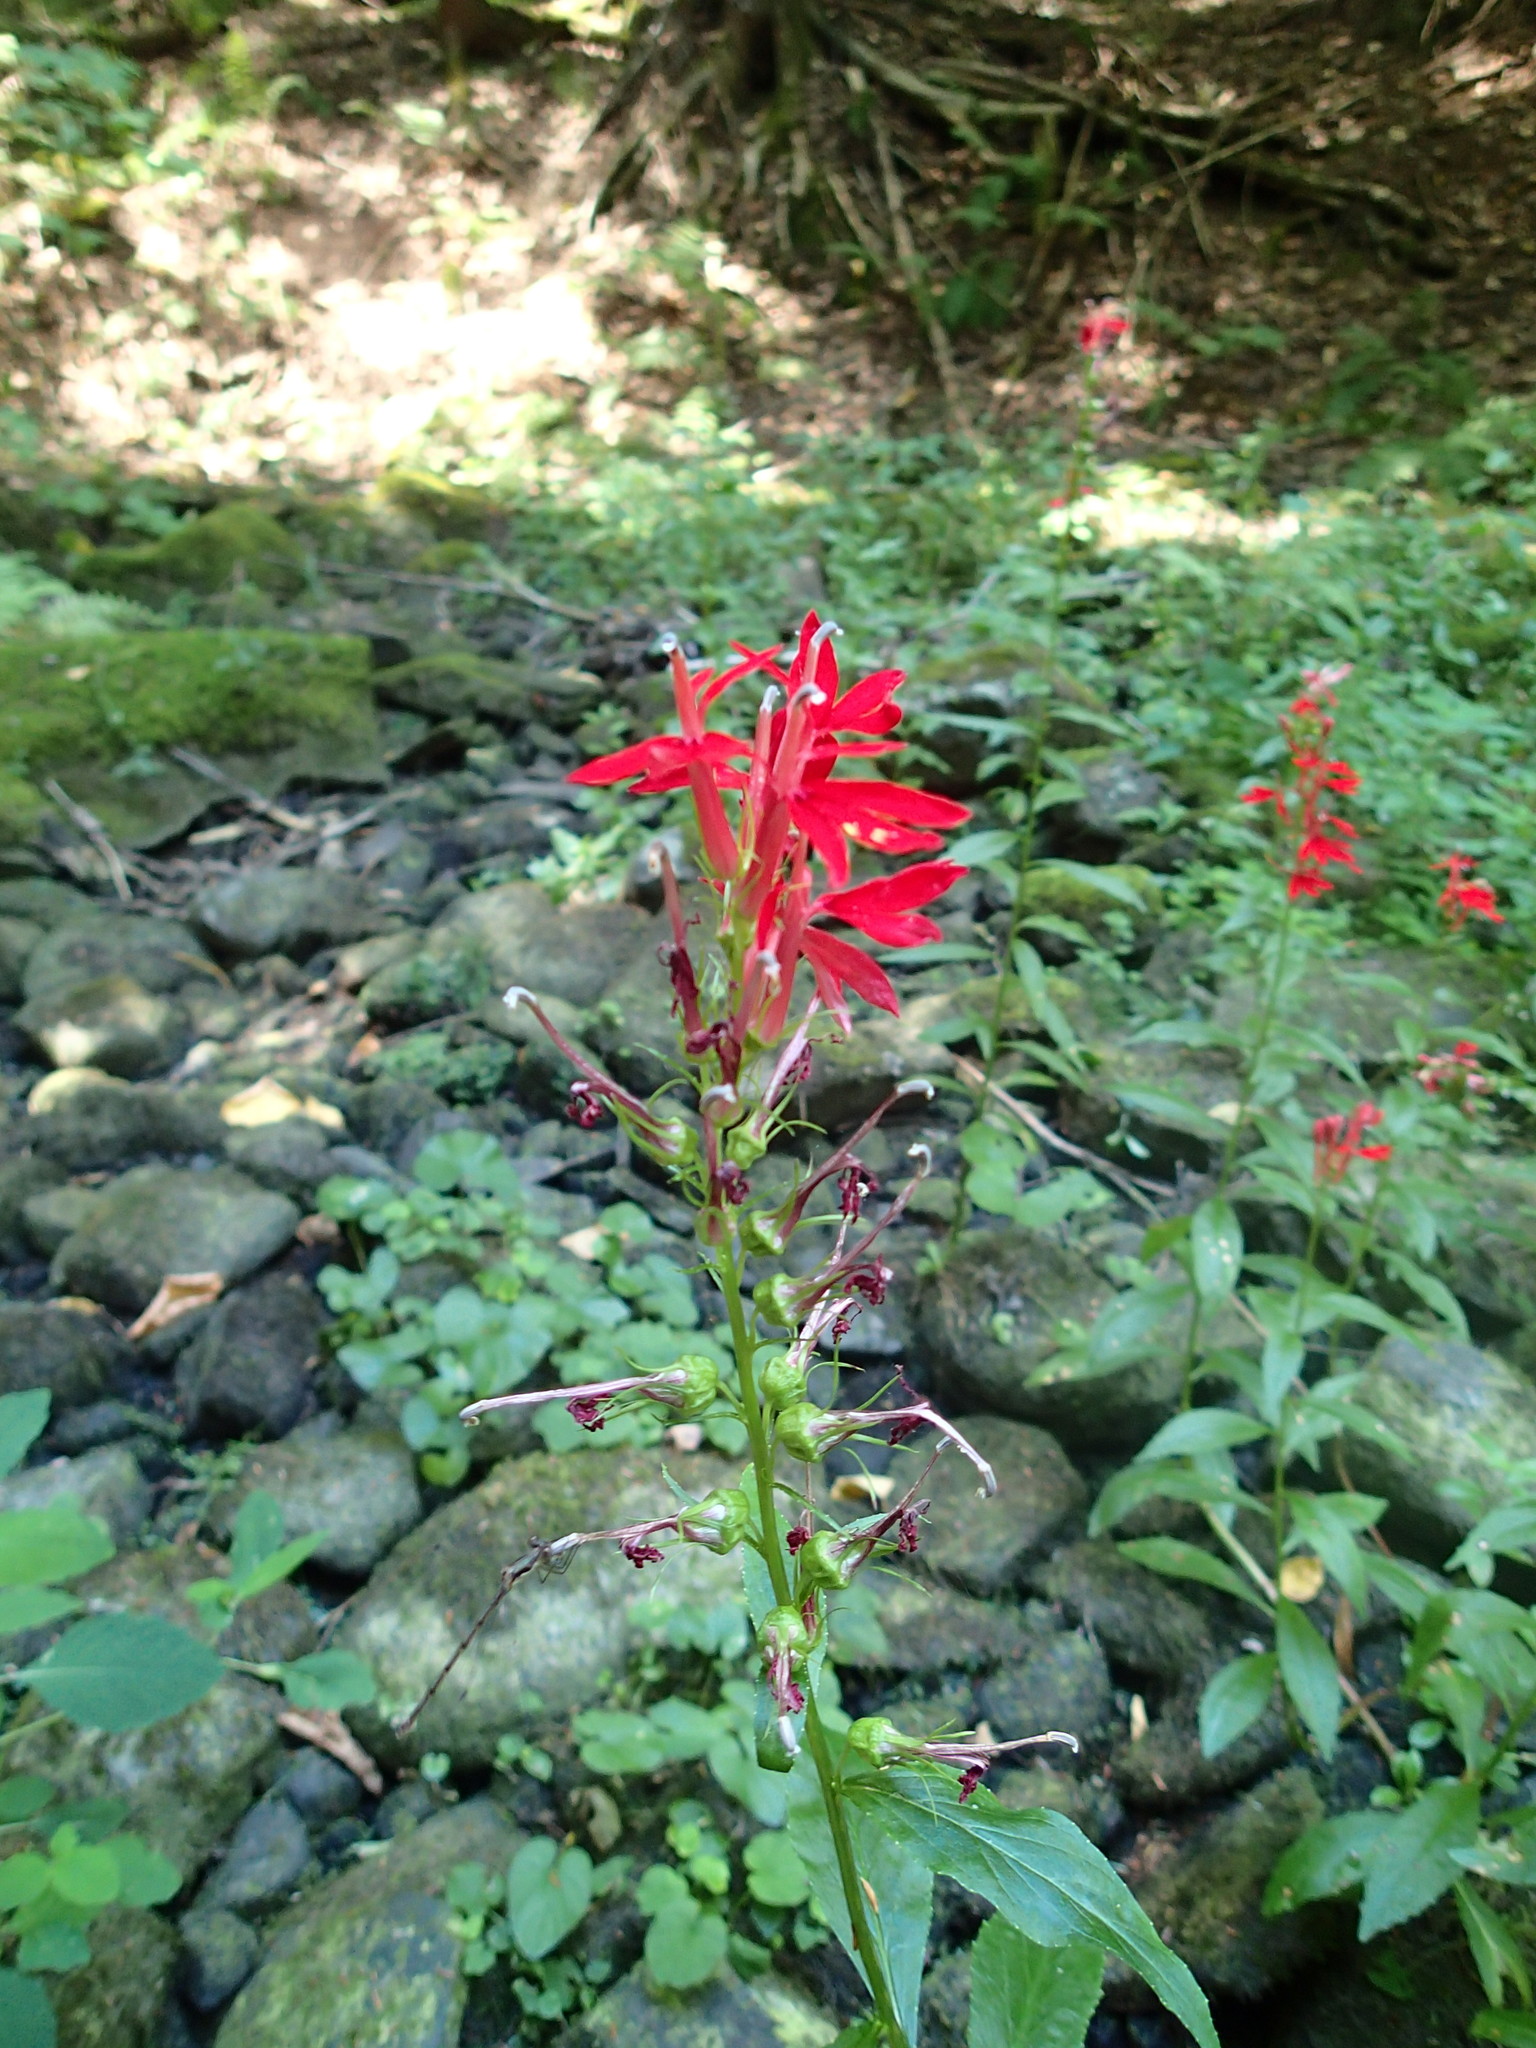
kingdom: Plantae
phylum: Tracheophyta
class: Magnoliopsida
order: Asterales
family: Campanulaceae
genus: Lobelia
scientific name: Lobelia cardinalis
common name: Cardinal flower
